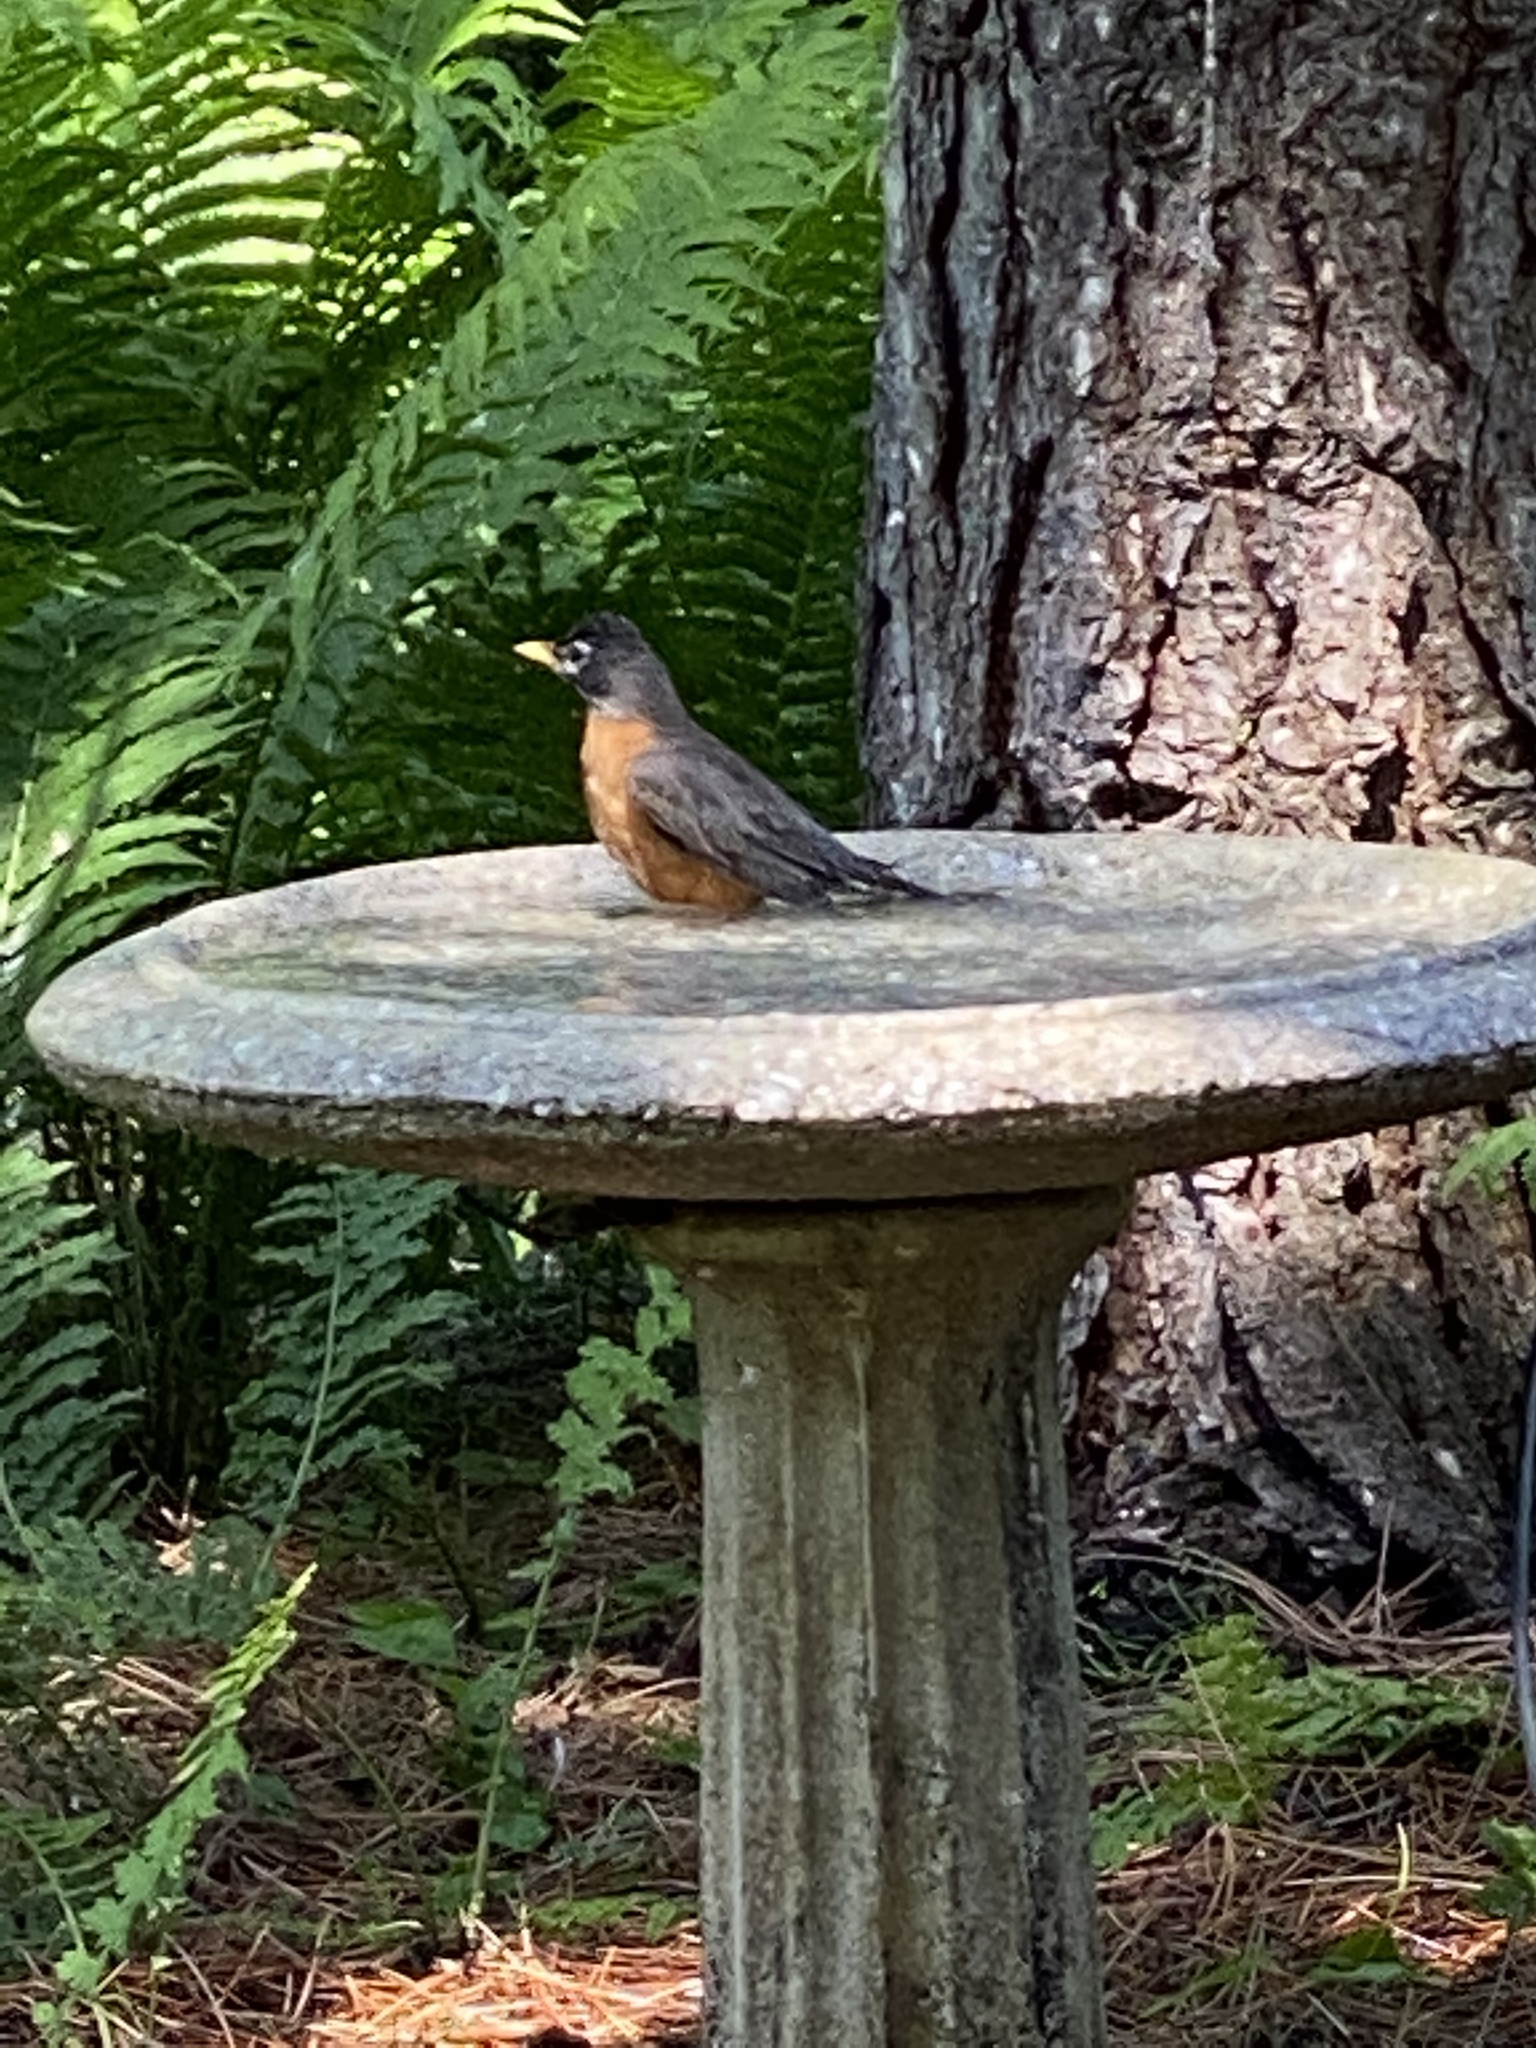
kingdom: Animalia
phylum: Chordata
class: Aves
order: Passeriformes
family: Turdidae
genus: Turdus
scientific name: Turdus migratorius
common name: American robin
